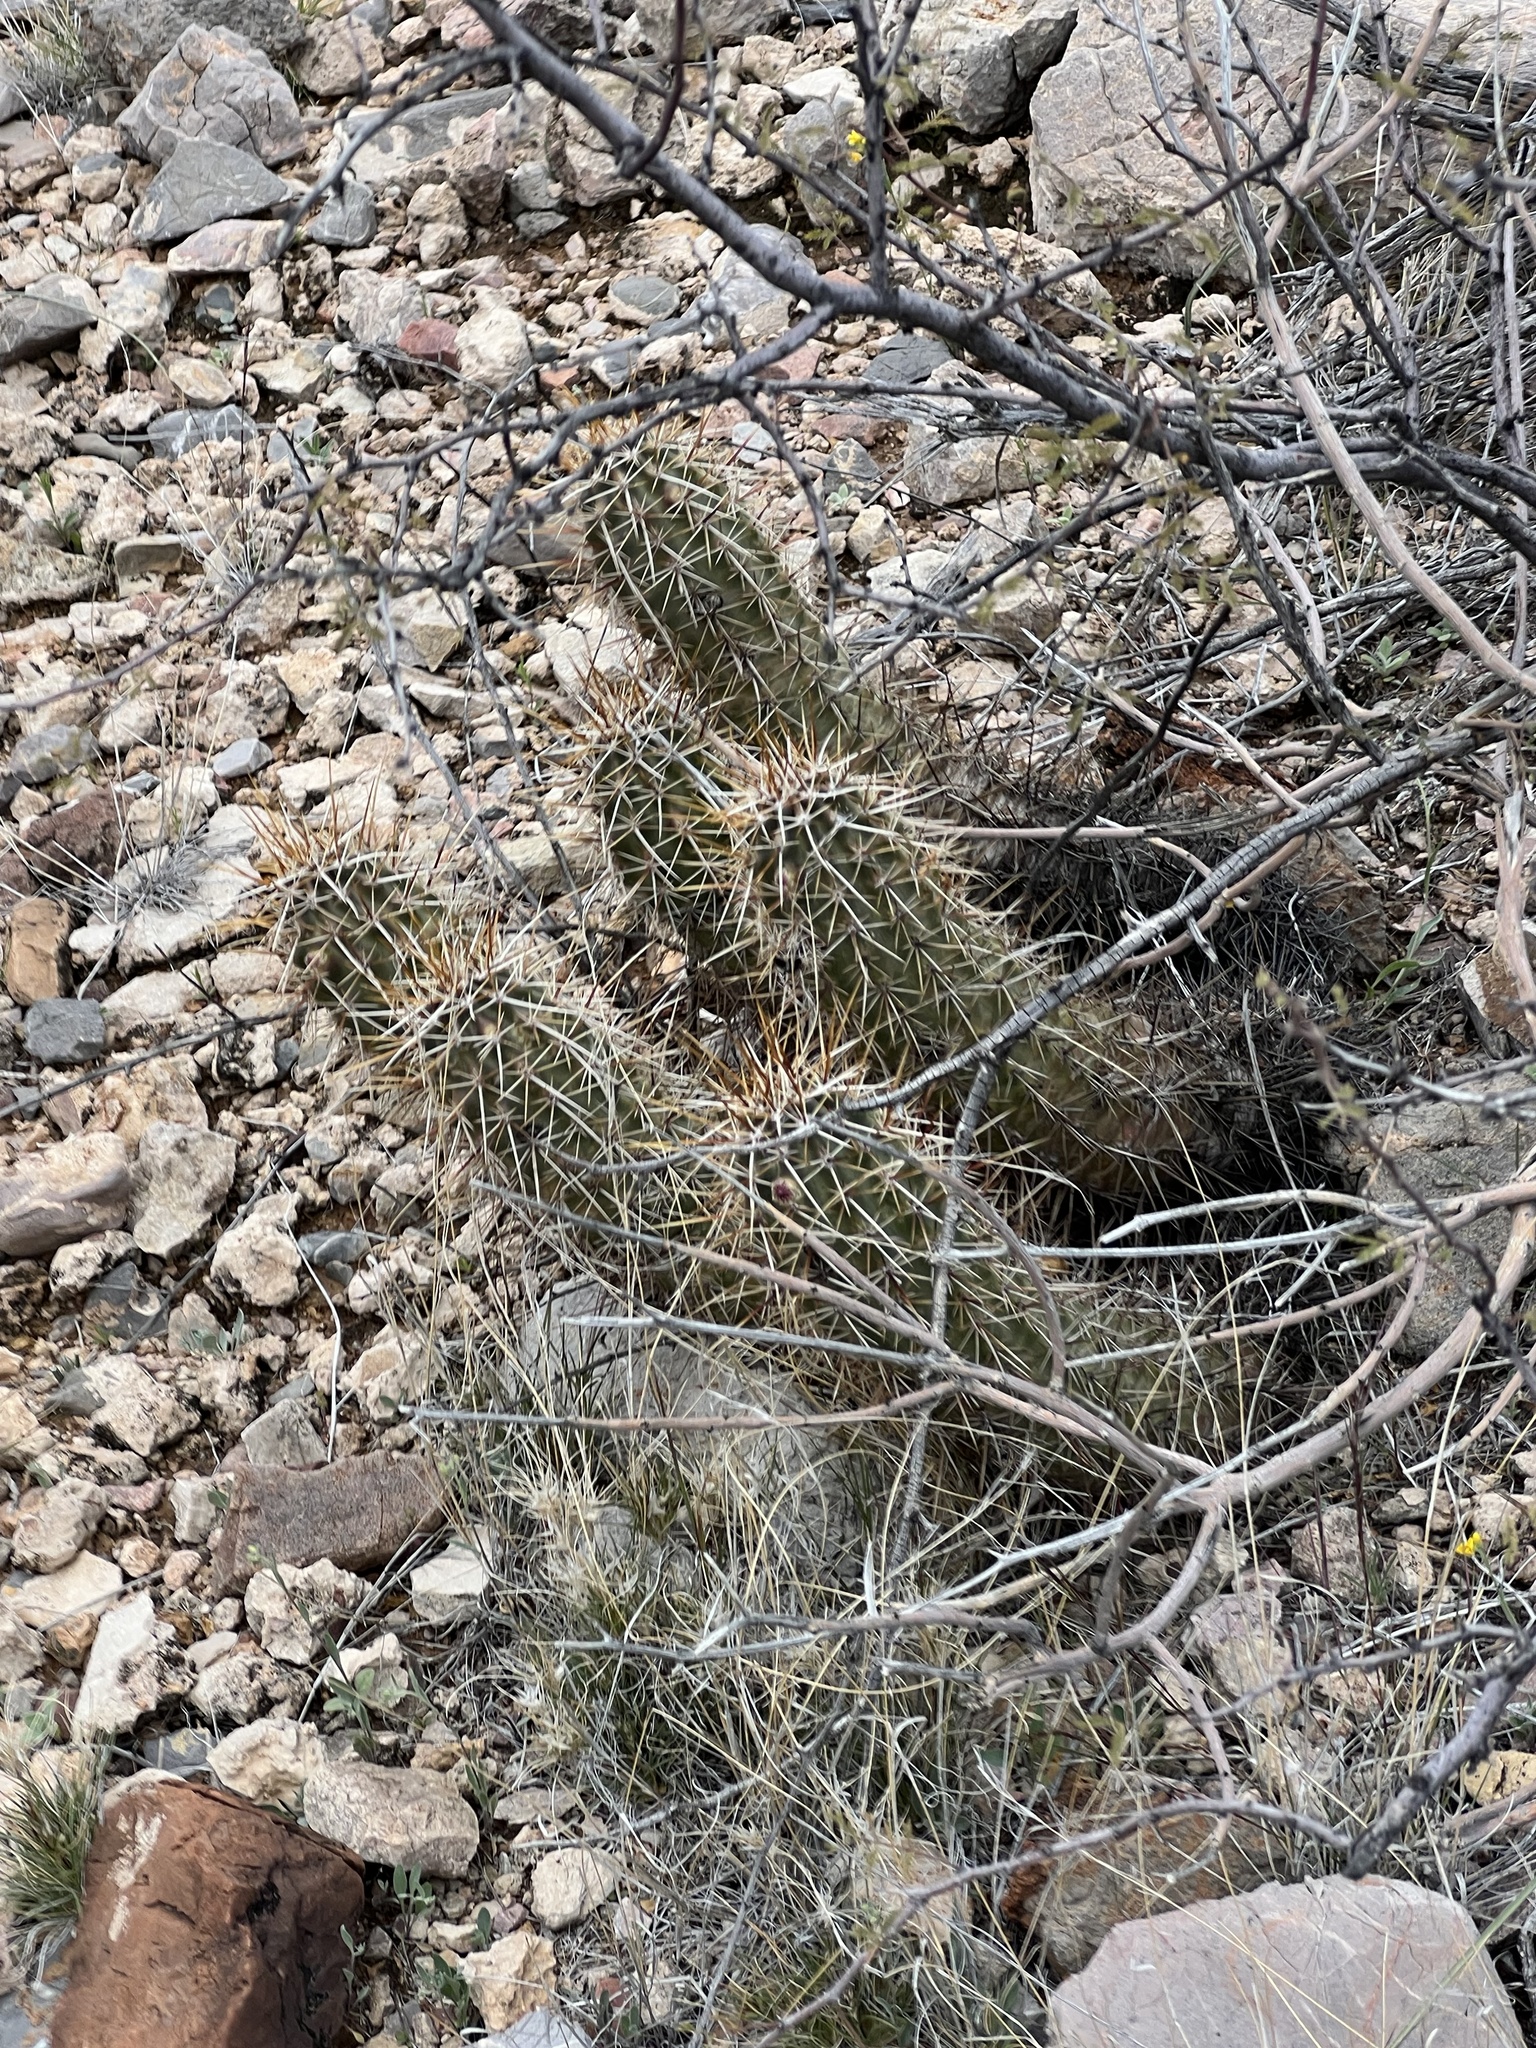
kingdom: Plantae
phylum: Tracheophyta
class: Magnoliopsida
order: Caryophyllales
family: Cactaceae
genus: Echinocereus
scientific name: Echinocereus fasciculatus
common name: Bundle hedgehog
